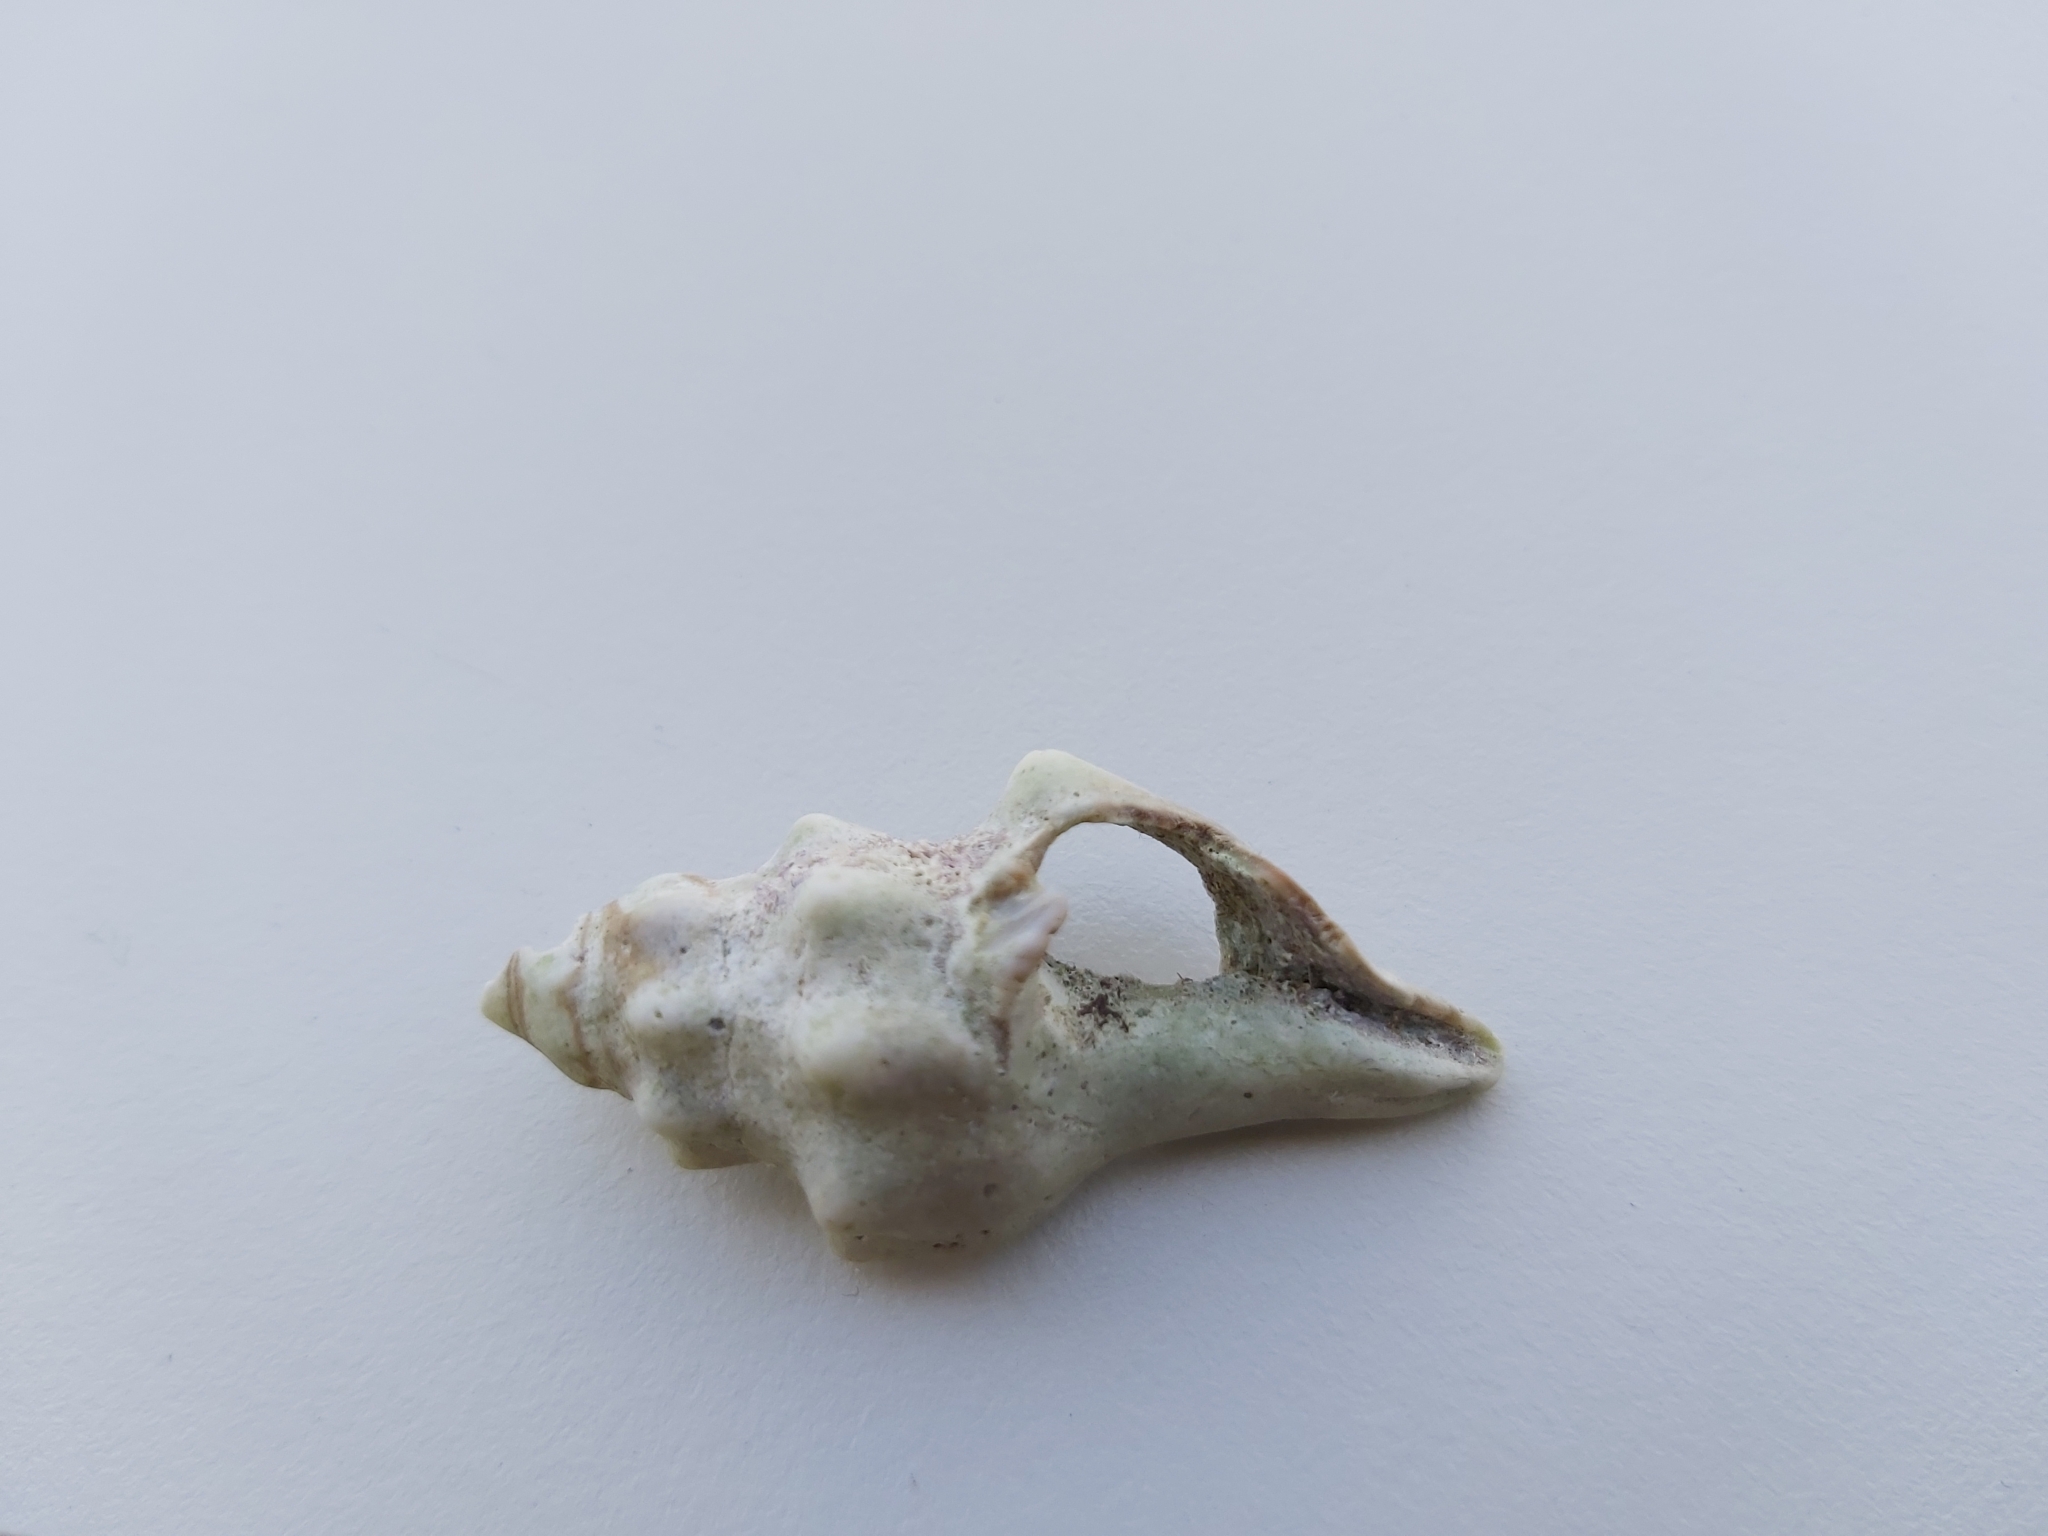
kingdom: Animalia
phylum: Mollusca
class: Gastropoda
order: Neogastropoda
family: Fasciolariidae
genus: Tarantinaea
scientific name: Tarantinaea lignaria
